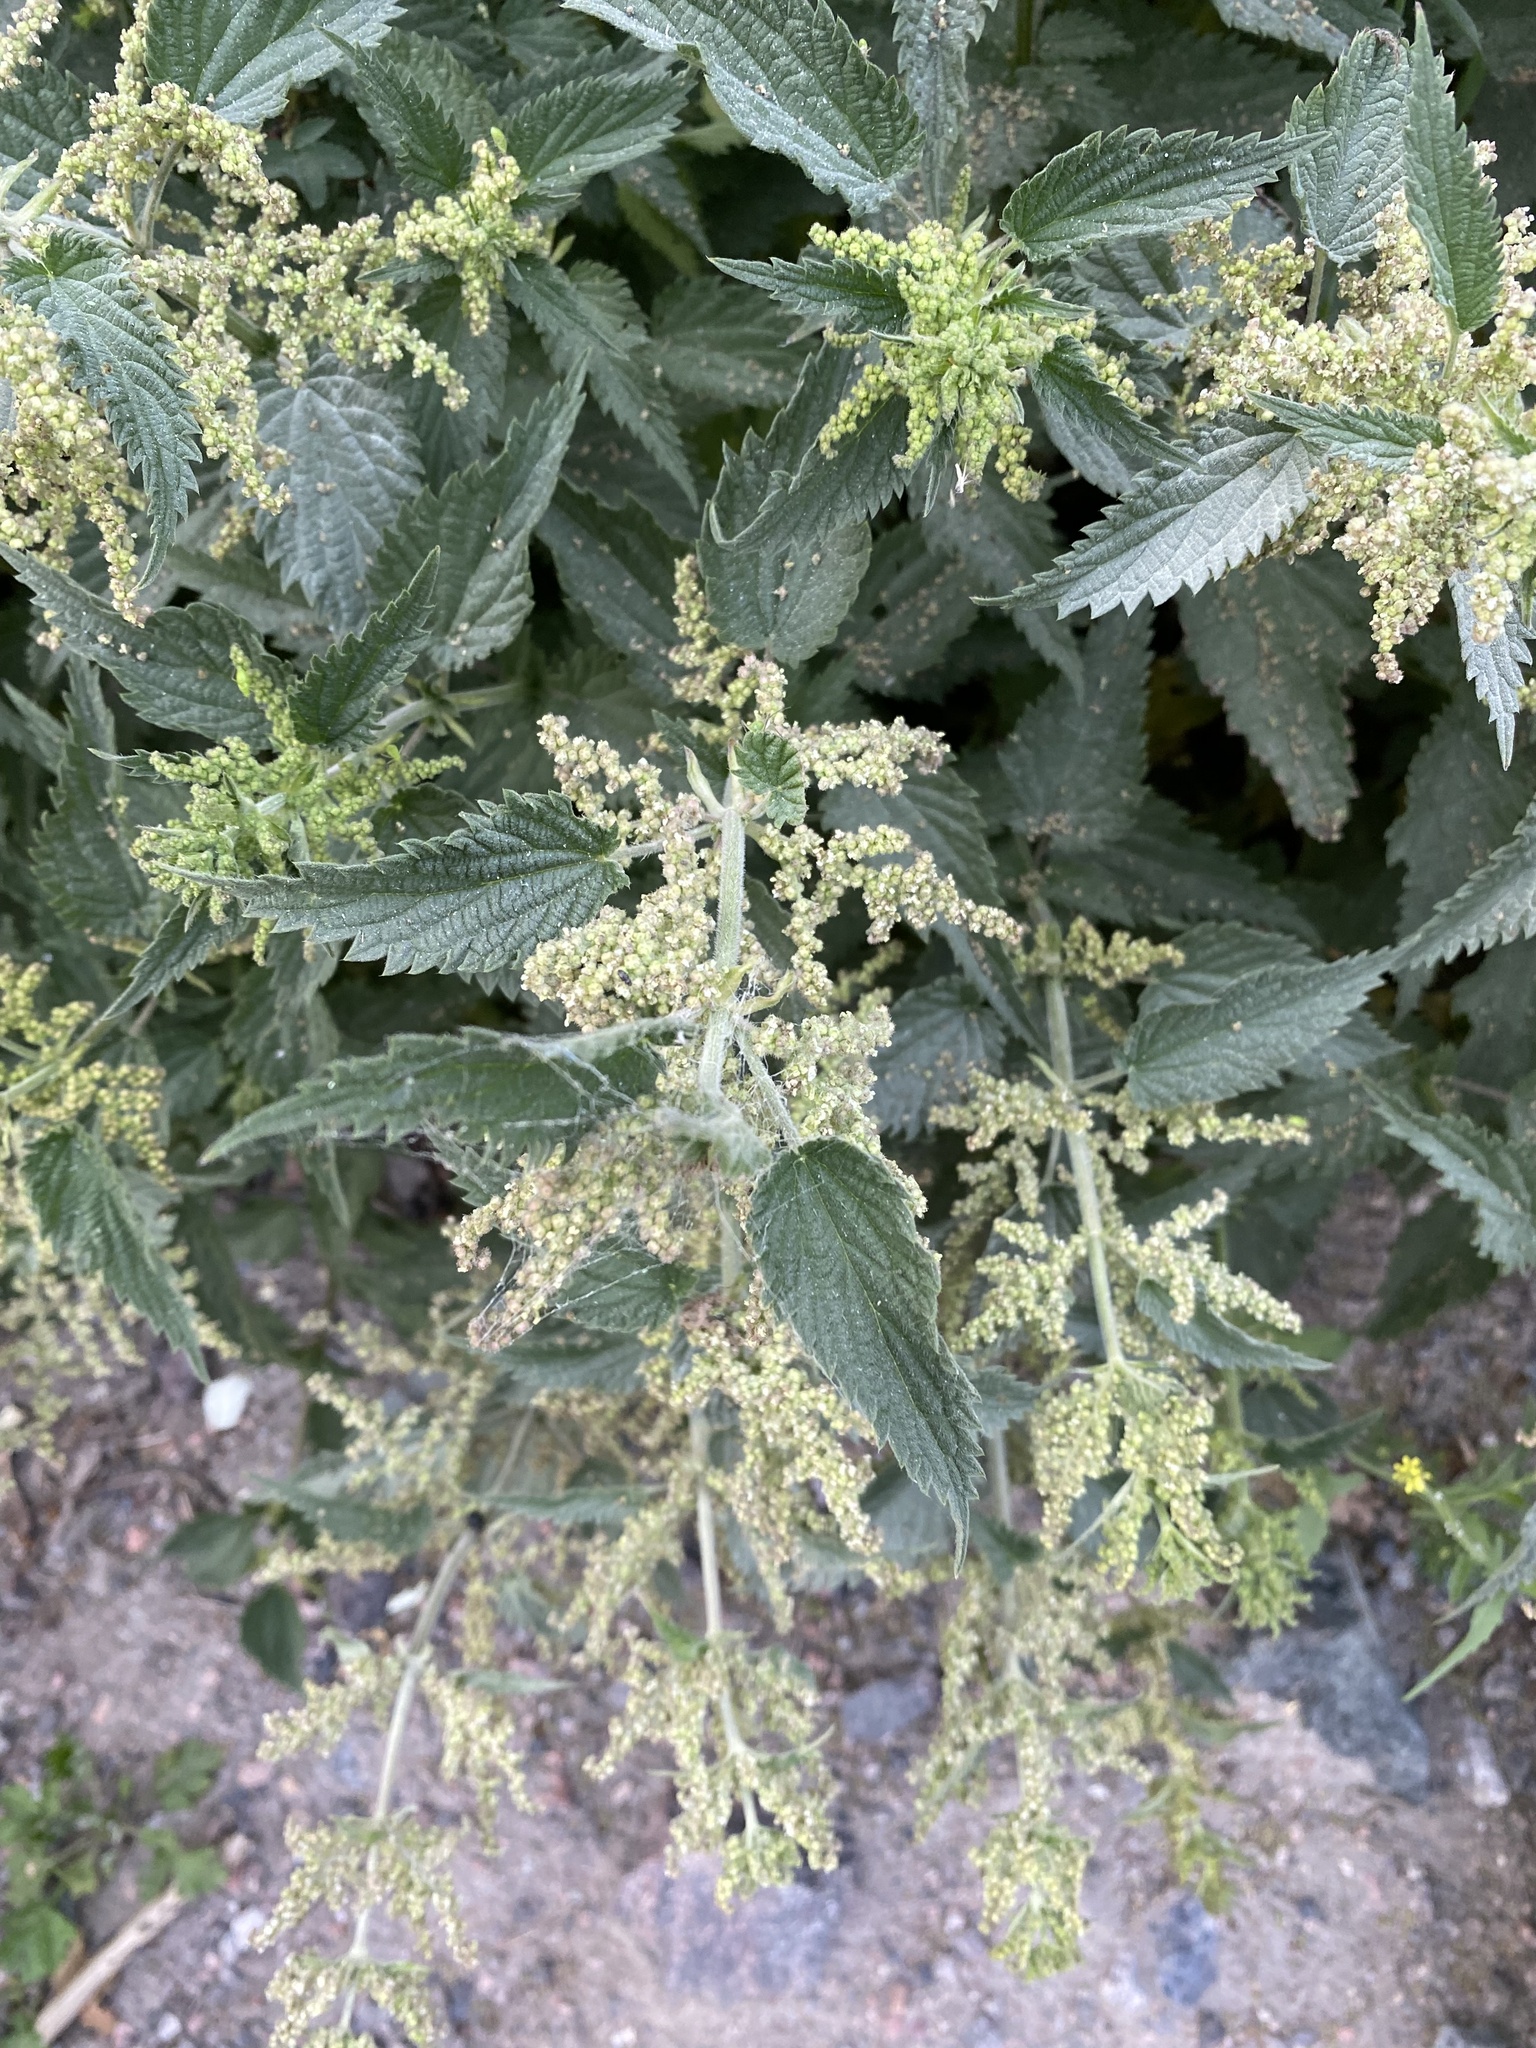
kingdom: Plantae
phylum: Tracheophyta
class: Magnoliopsida
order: Rosales
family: Urticaceae
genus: Urtica
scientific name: Urtica dioica
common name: Common nettle
